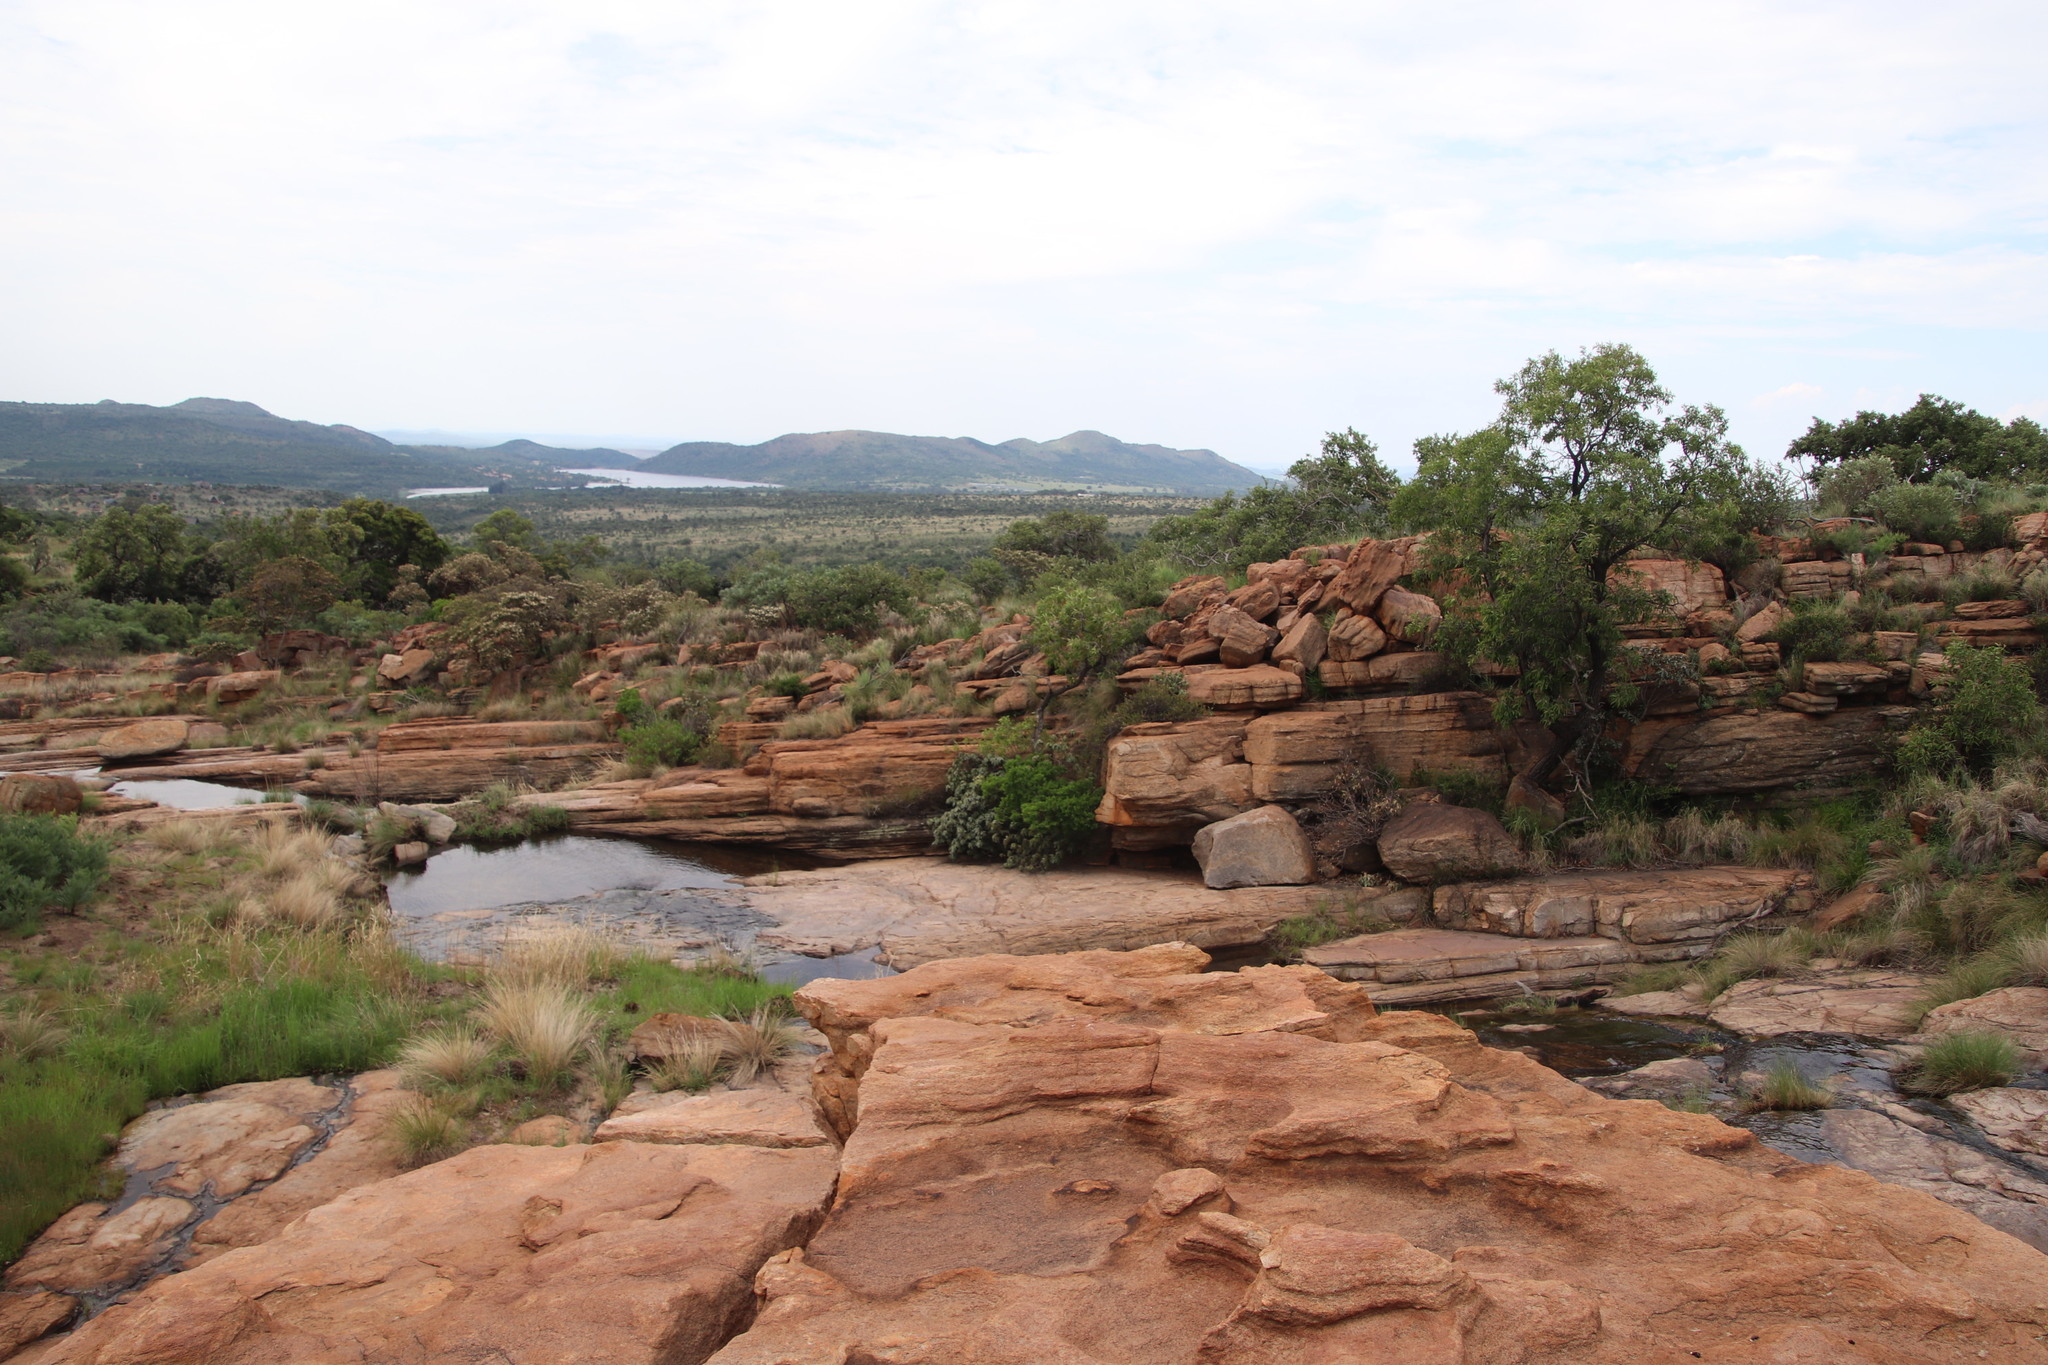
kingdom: Plantae
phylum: Tracheophyta
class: Magnoliopsida
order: Proteales
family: Proteaceae
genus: Faurea
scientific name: Faurea saligna
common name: African bean
